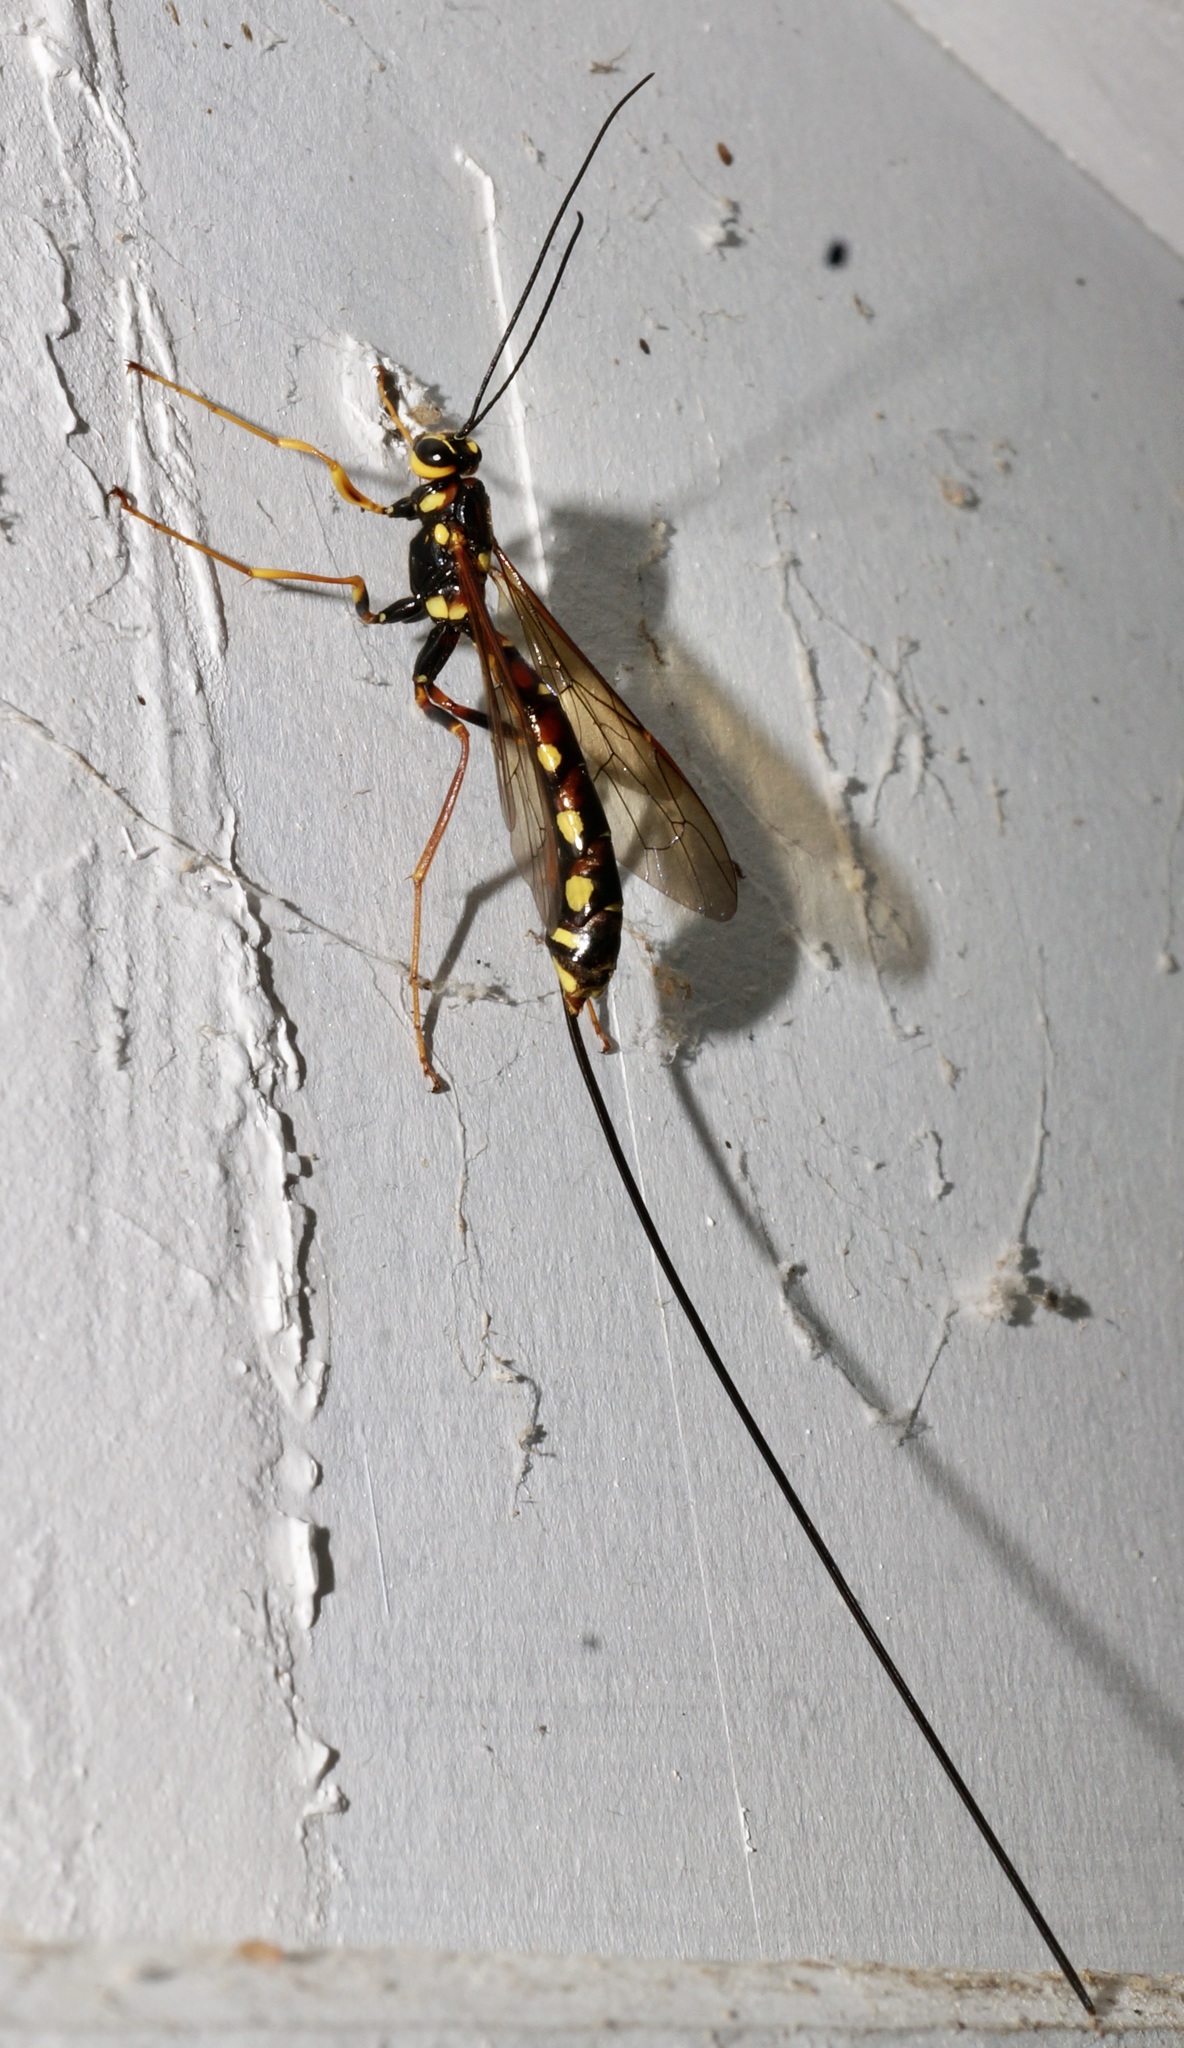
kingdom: Animalia
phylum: Arthropoda
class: Insecta
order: Hymenoptera
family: Ichneumonidae
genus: Megarhyssa
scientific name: Megarhyssa nortoni
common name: Norton's giant ichneumonid wasp
